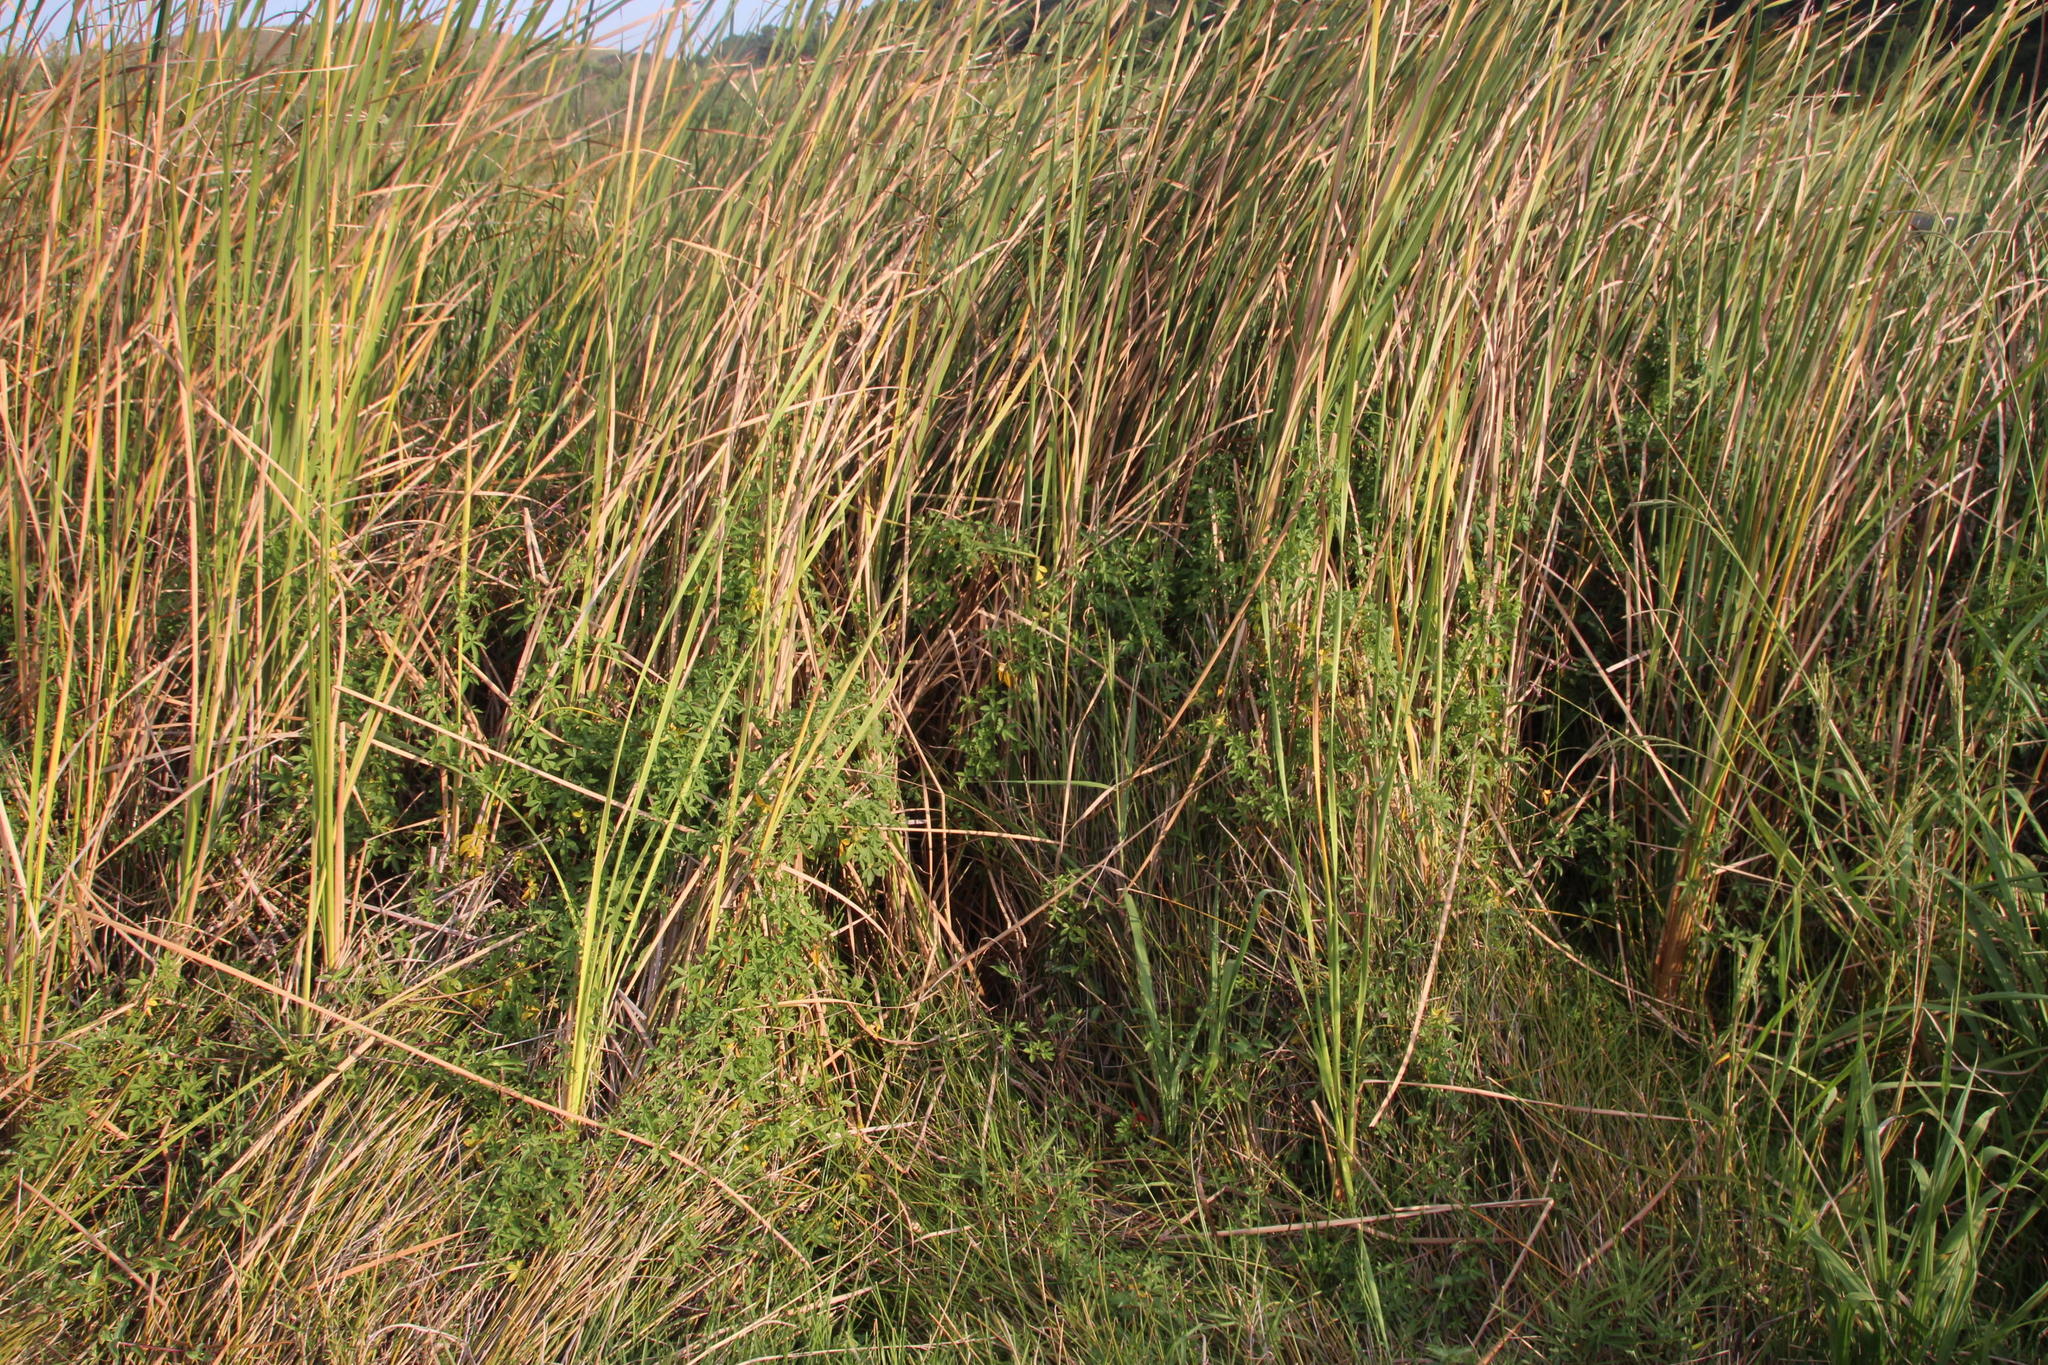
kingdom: Plantae
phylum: Tracheophyta
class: Magnoliopsida
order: Solanales
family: Convolvulaceae
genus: Ipomoea
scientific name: Ipomoea cairica
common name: Mile a minute vine
